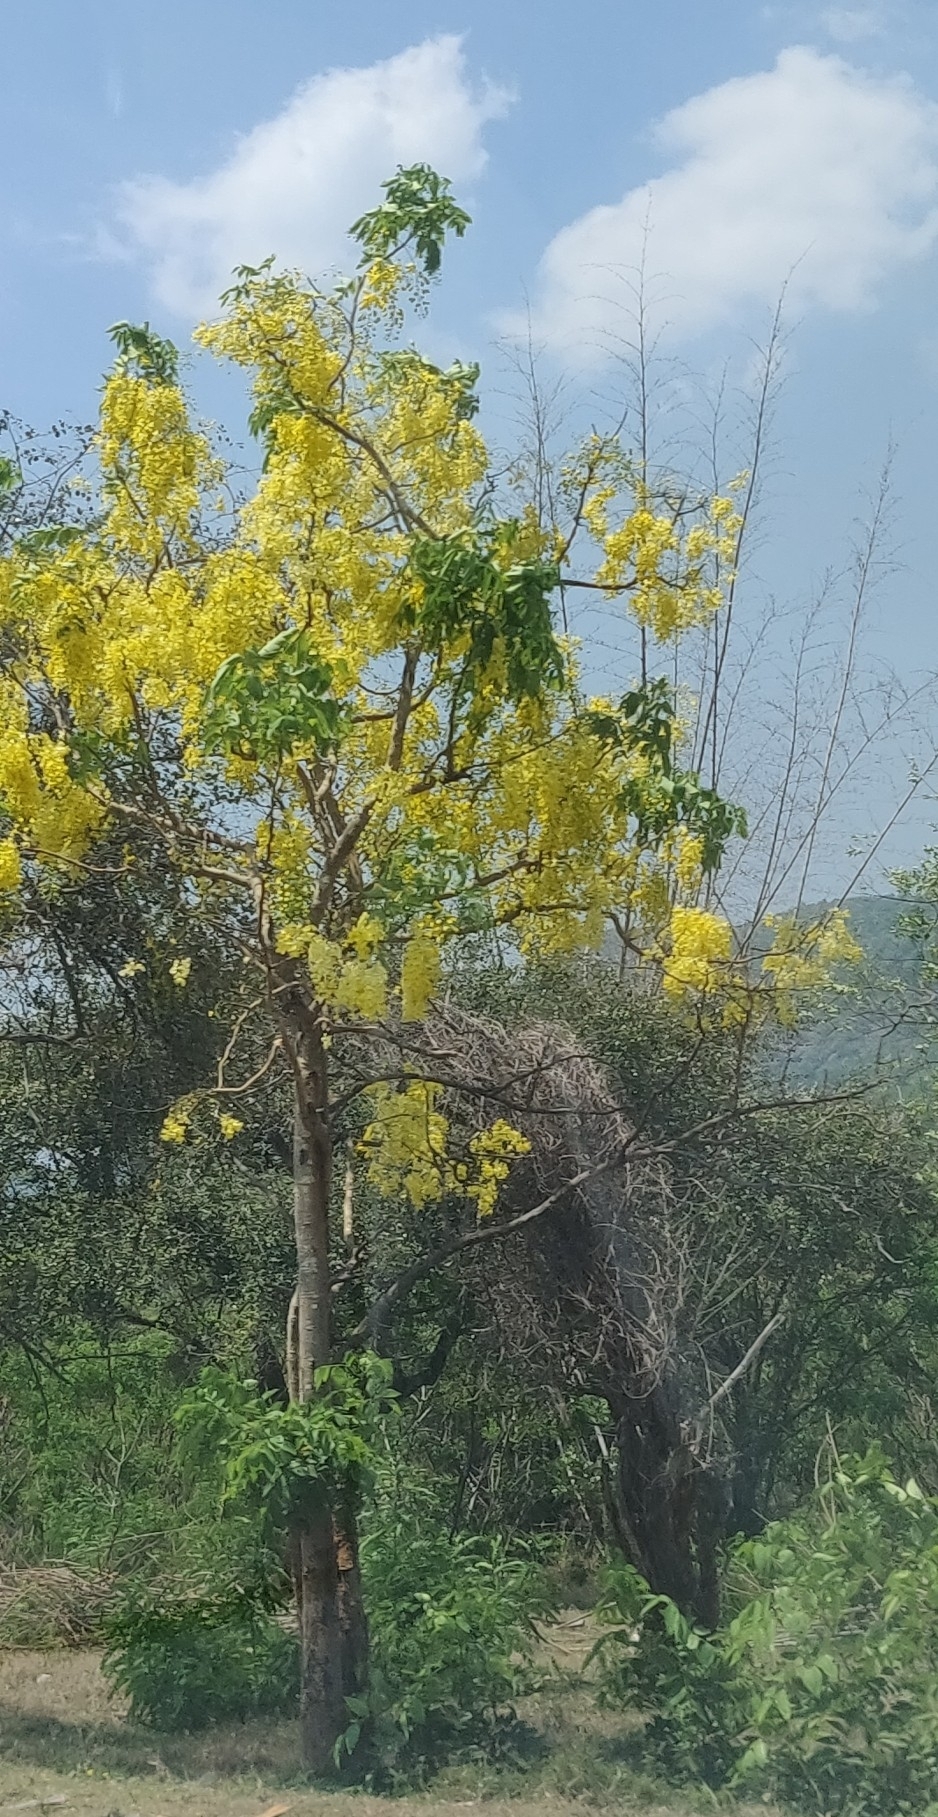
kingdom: Plantae
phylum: Tracheophyta
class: Magnoliopsida
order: Fabales
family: Fabaceae
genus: Cassia
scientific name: Cassia fistula
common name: Golden shower
